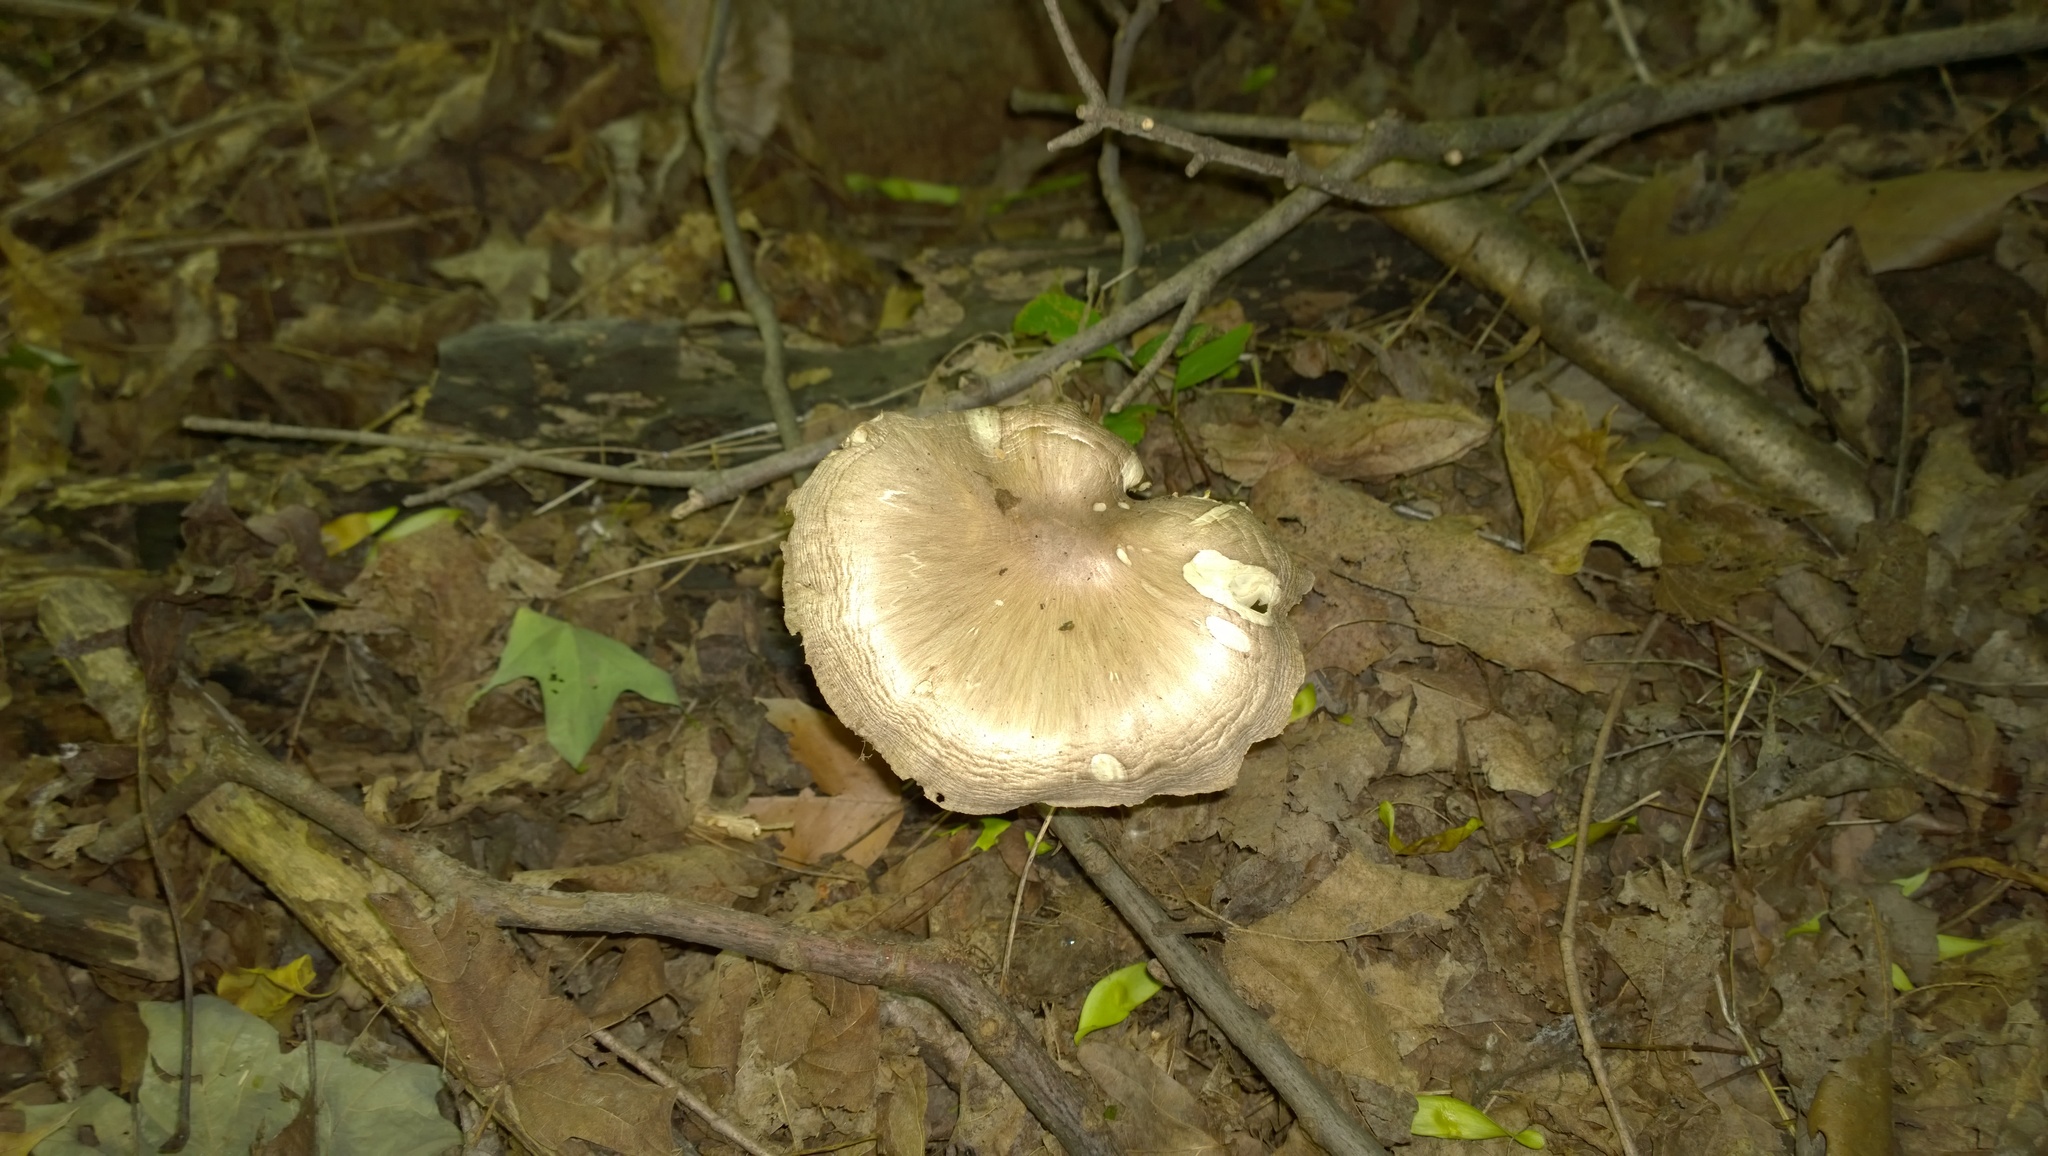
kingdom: Fungi
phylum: Basidiomycota
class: Agaricomycetes
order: Agaricales
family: Tricholomataceae
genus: Megacollybia
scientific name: Megacollybia rodmanii
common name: Eastern american platterful mushroom
